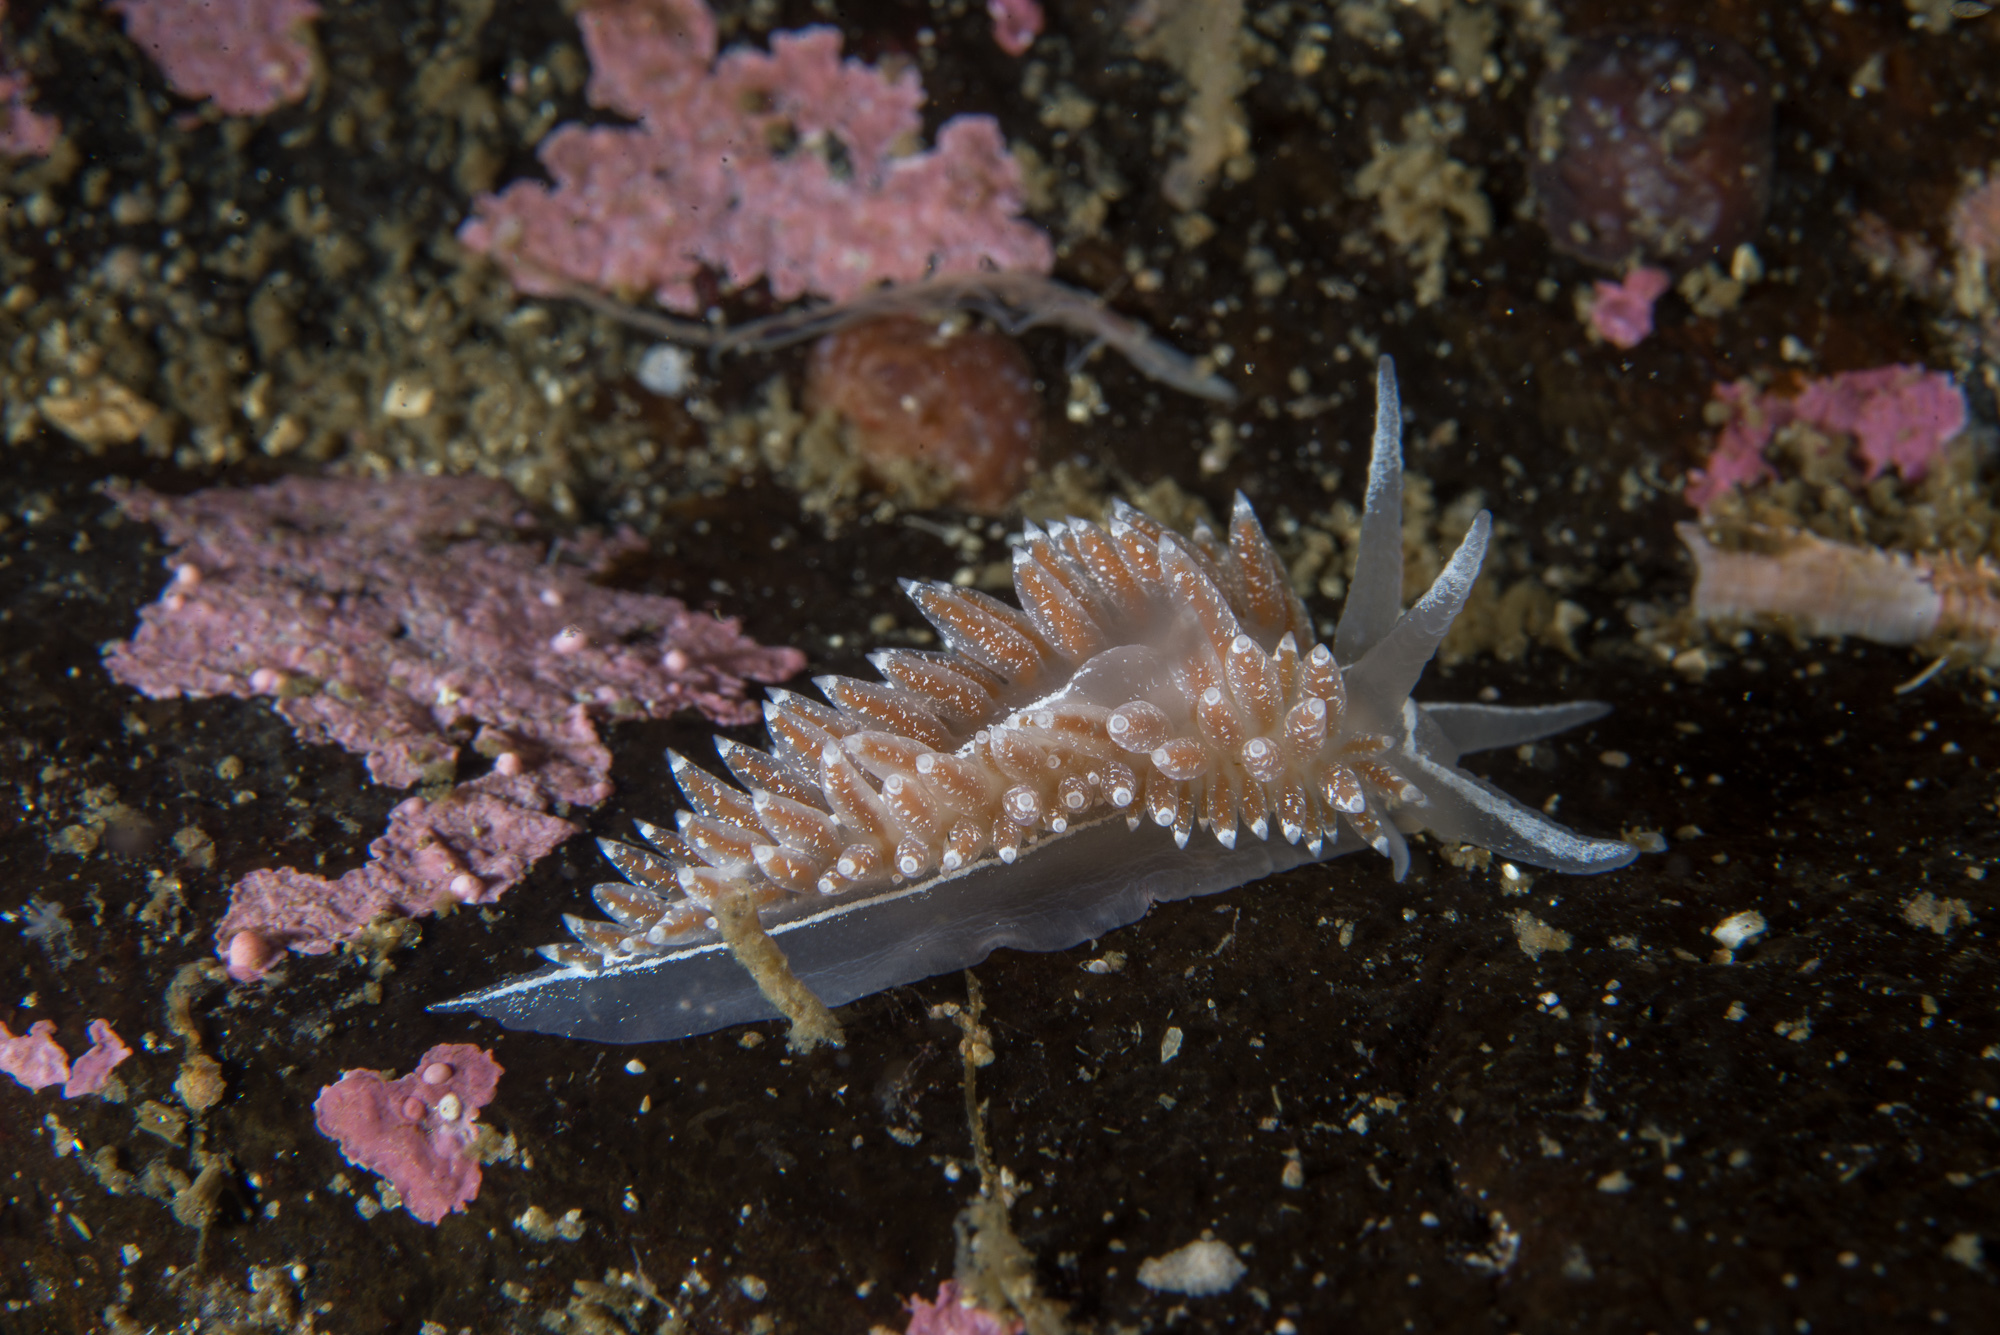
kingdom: Animalia
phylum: Mollusca
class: Gastropoda
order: Nudibranchia
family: Coryphellidae
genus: Coryphella
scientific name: Coryphella orjani
